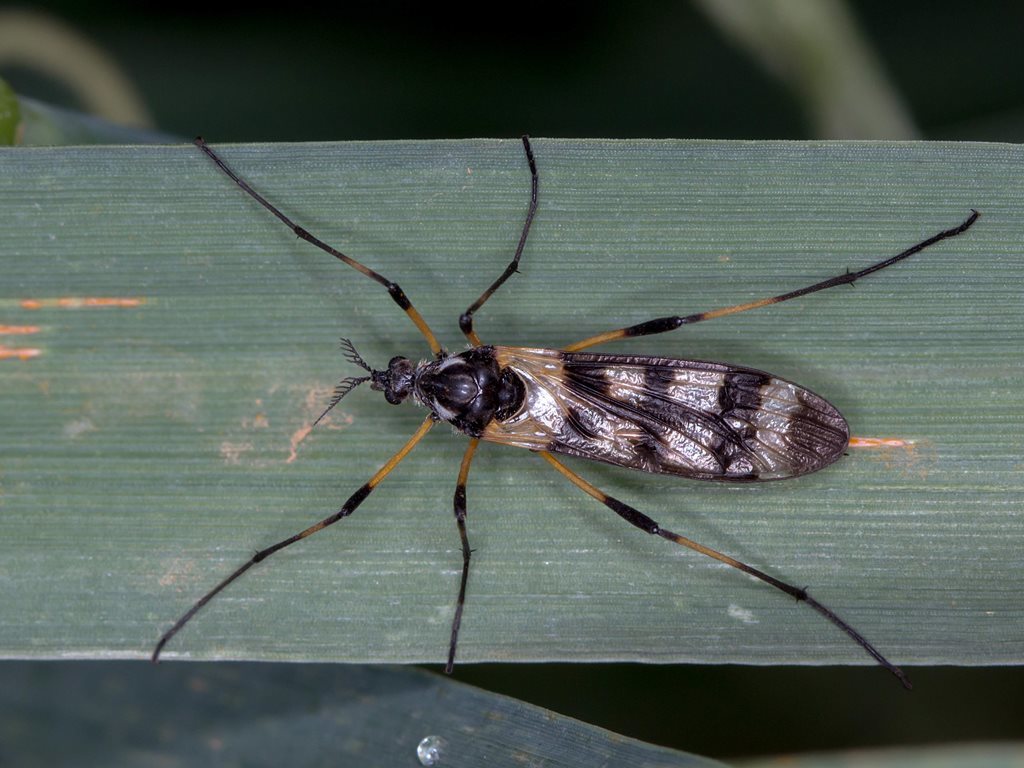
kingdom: Animalia
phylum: Arthropoda
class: Insecta
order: Diptera
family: Limoniidae
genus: Gynoplistia
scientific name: Gynoplistia bella
